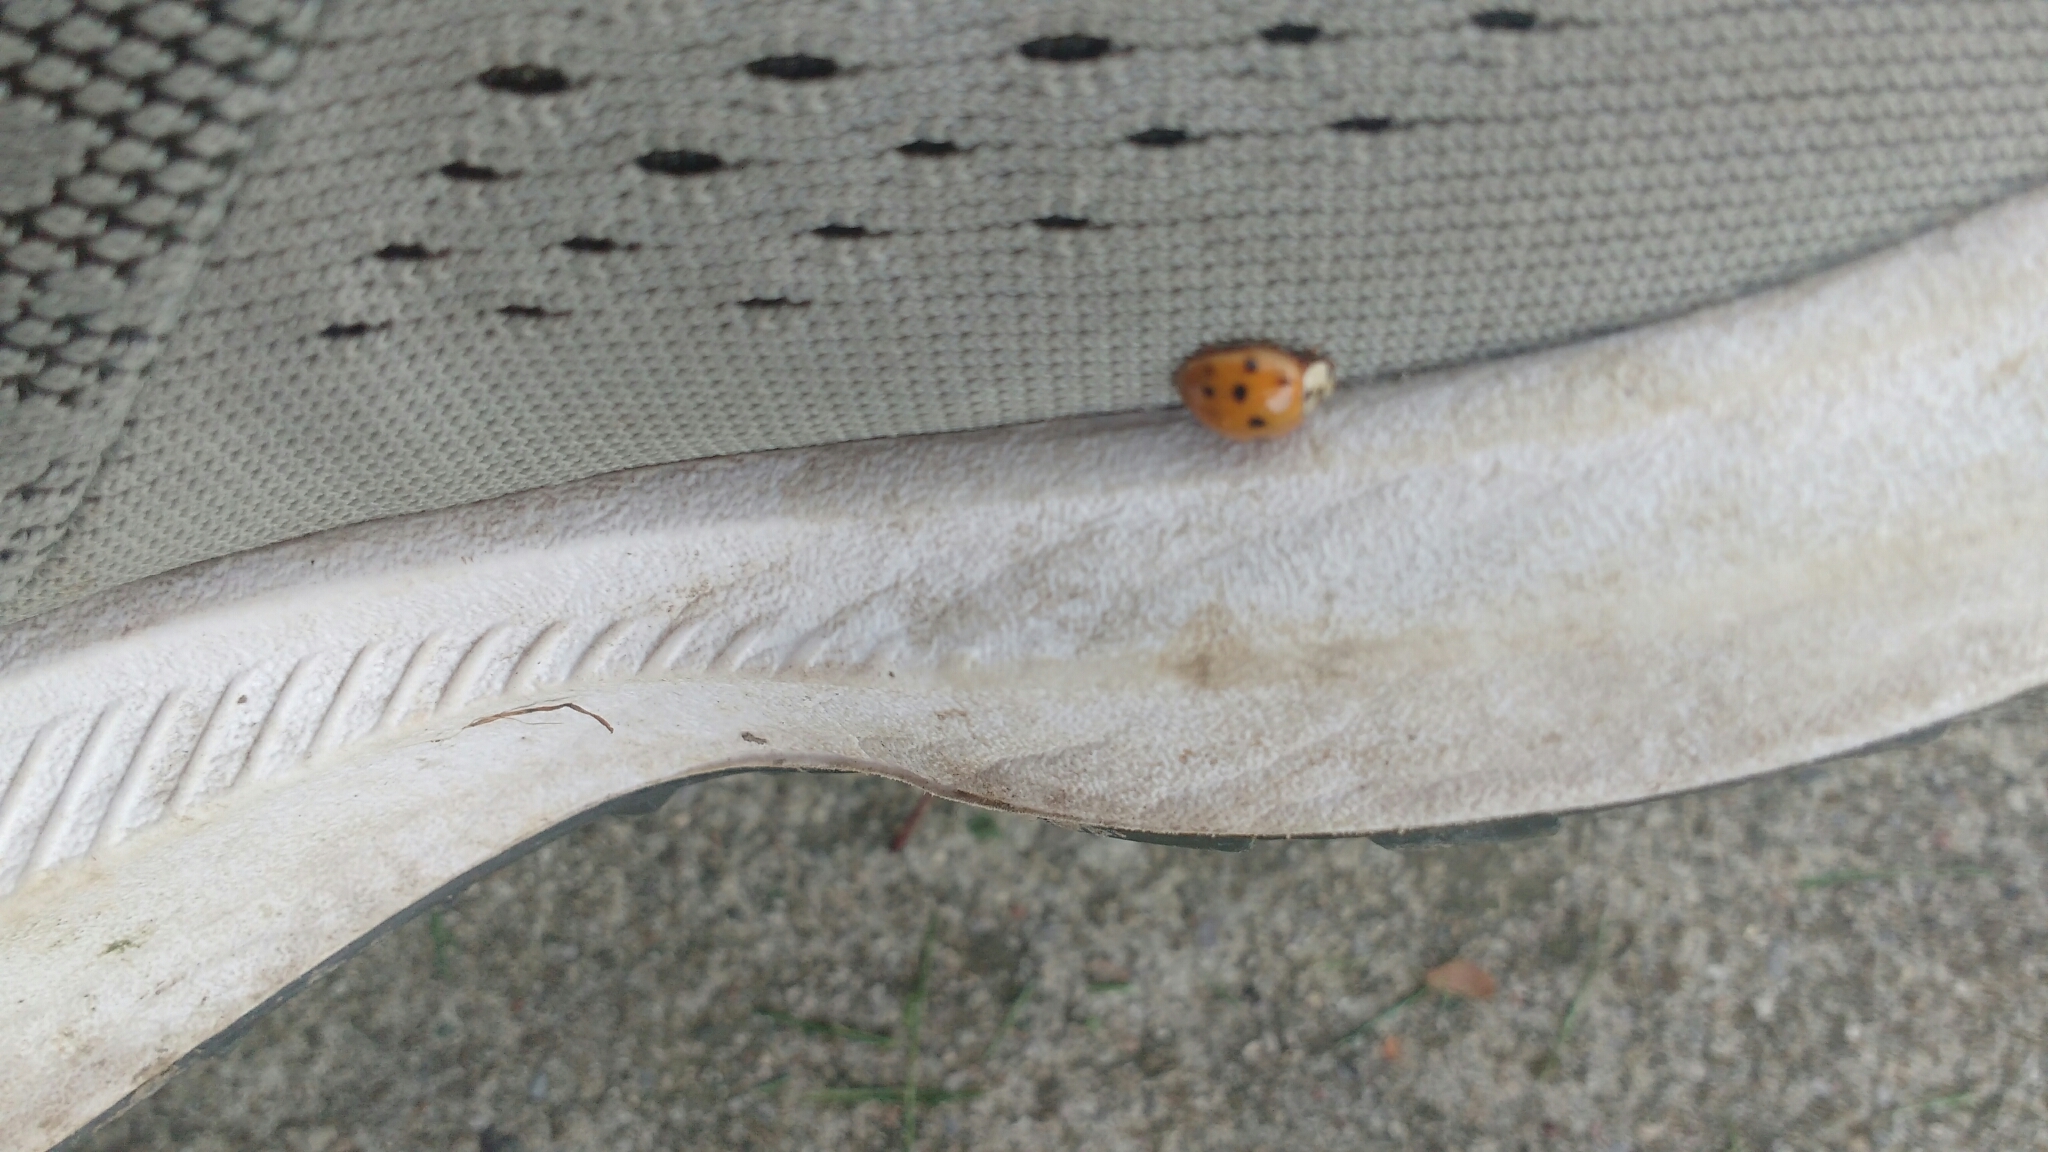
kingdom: Animalia
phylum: Arthropoda
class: Insecta
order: Coleoptera
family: Coccinellidae
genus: Harmonia
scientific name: Harmonia axyridis
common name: Harlequin ladybird
